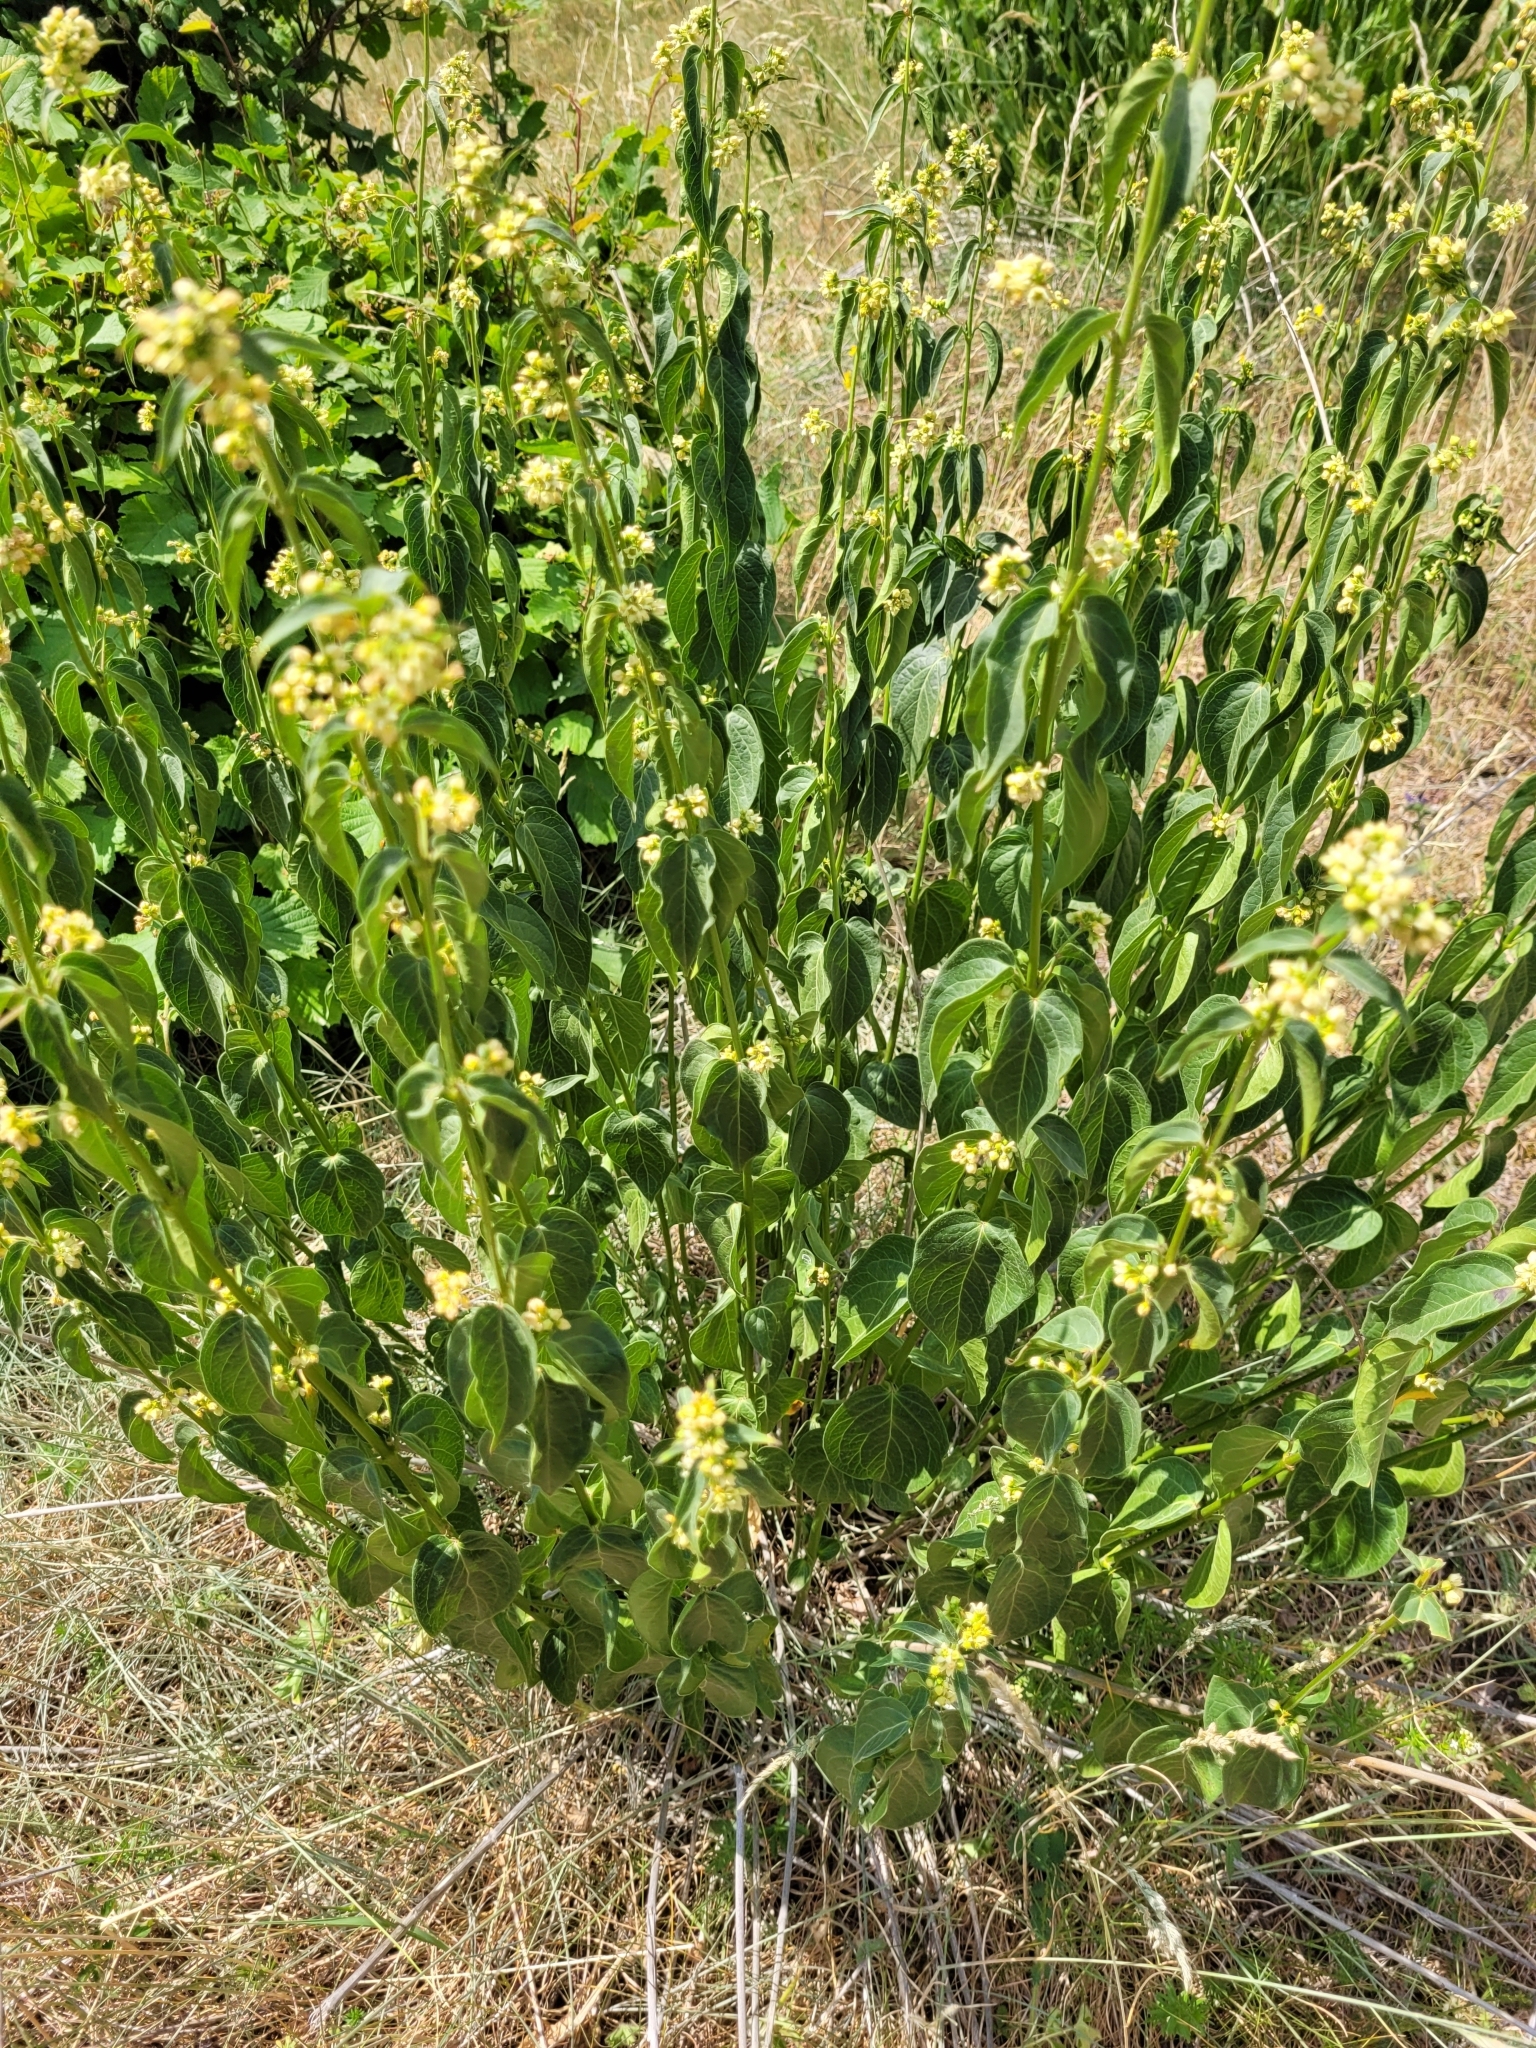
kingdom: Plantae
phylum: Tracheophyta
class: Magnoliopsida
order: Gentianales
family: Apocynaceae
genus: Vincetoxicum
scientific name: Vincetoxicum hirundinaria
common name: White swallowwort
